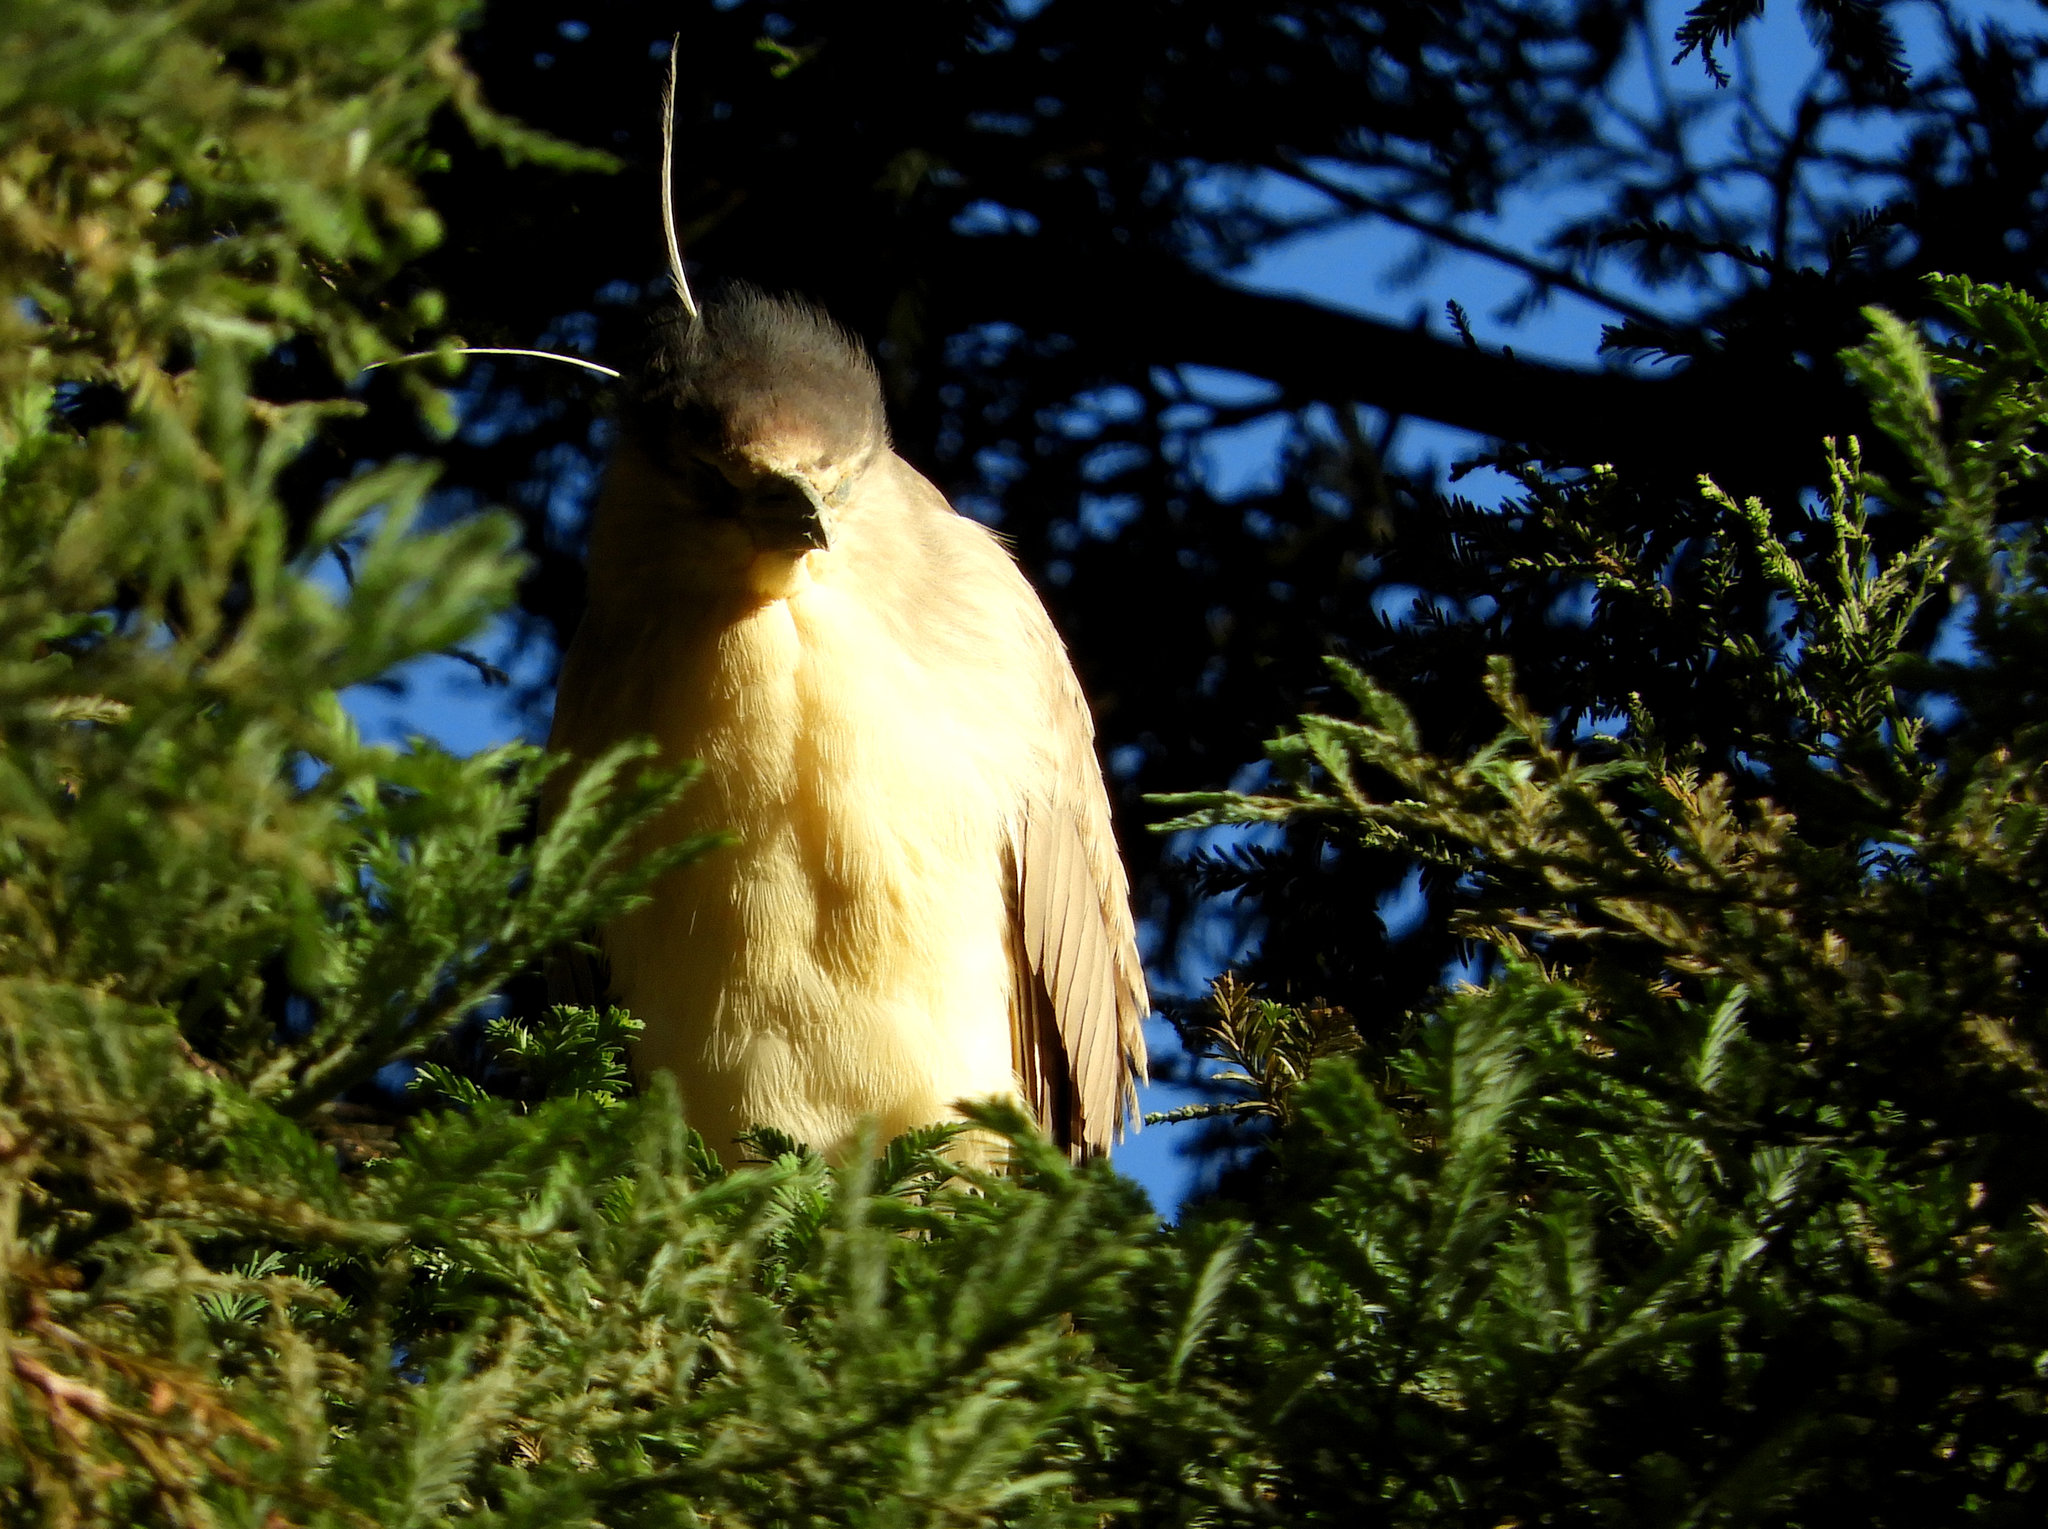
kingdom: Animalia
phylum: Chordata
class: Aves
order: Pelecaniformes
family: Ardeidae
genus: Nycticorax
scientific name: Nycticorax nycticorax
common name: Black-crowned night heron
